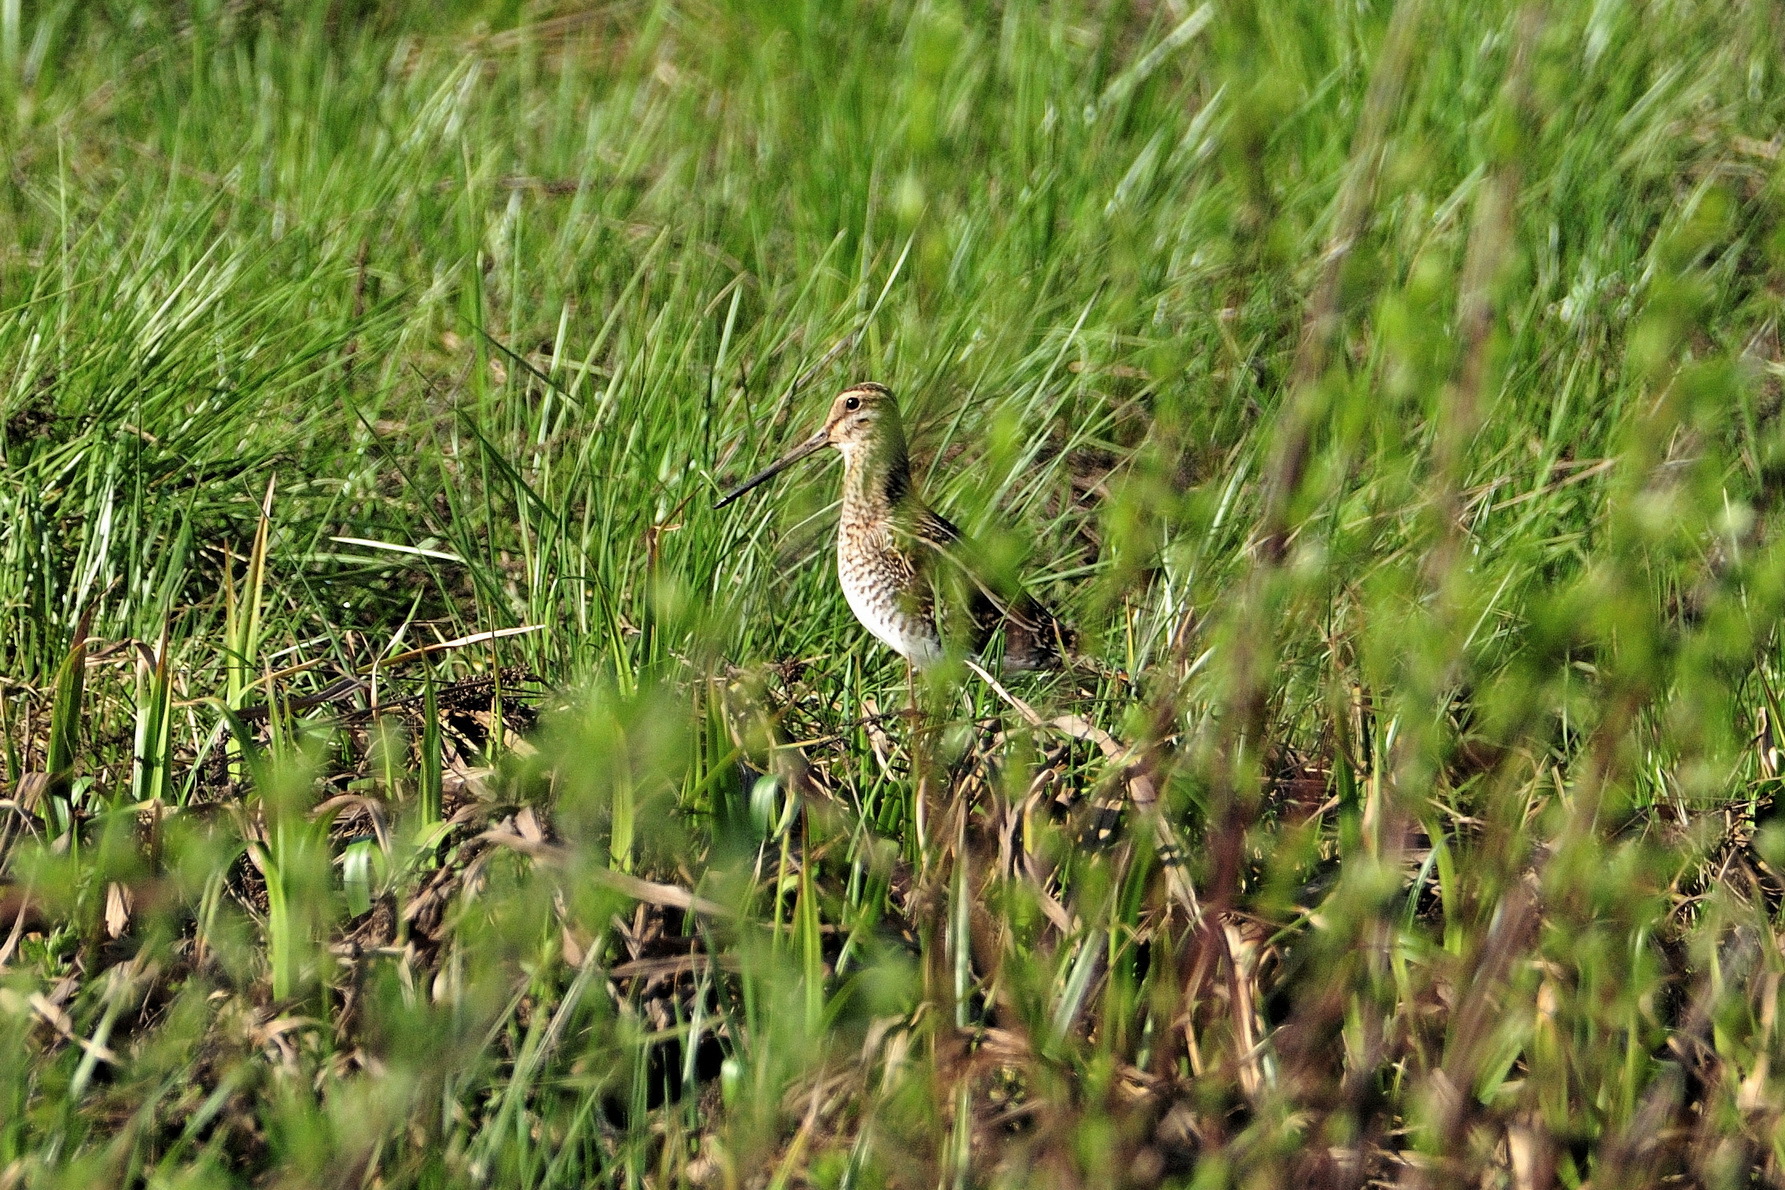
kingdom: Animalia
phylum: Chordata
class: Aves
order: Charadriiformes
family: Scolopacidae
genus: Gallinago
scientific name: Gallinago gallinago
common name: Common snipe
